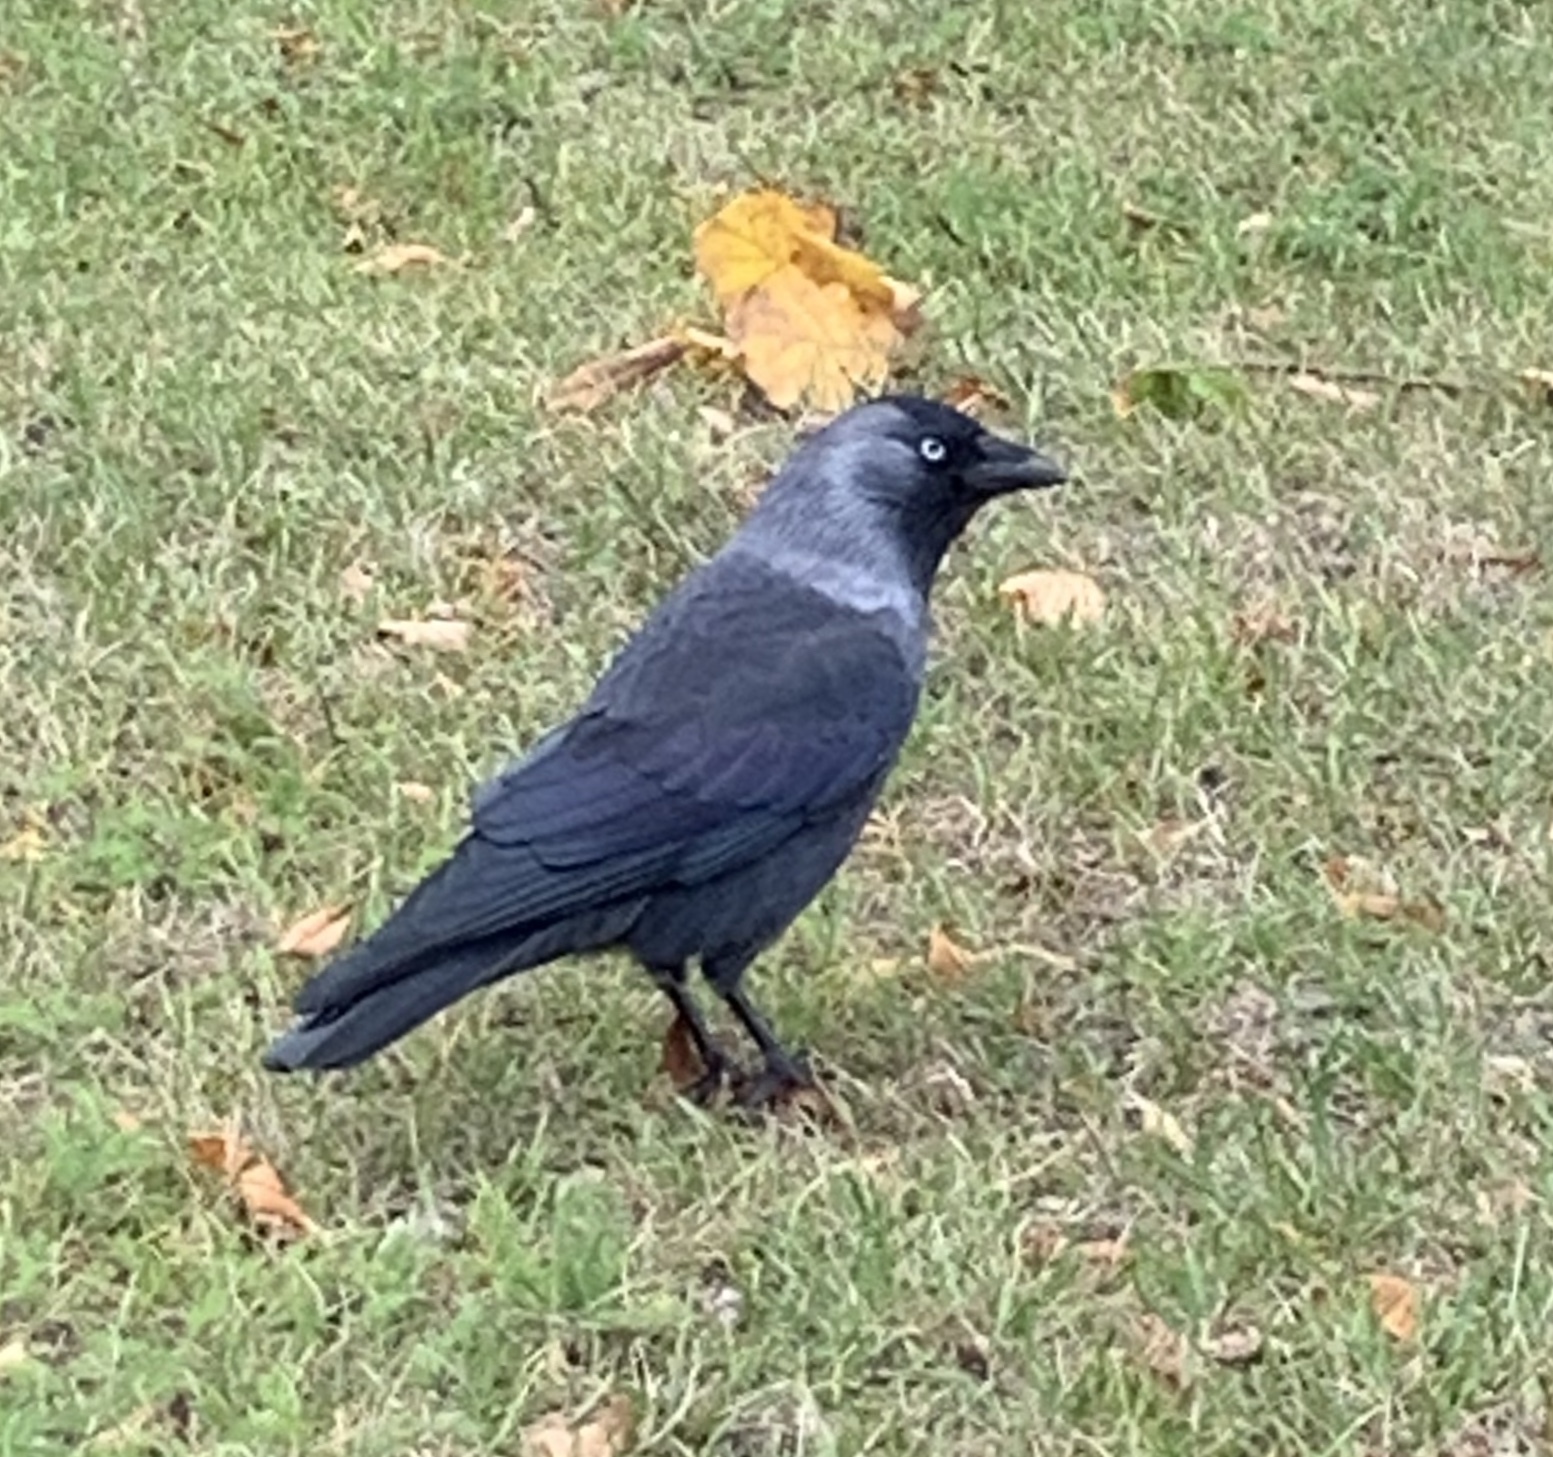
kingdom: Animalia
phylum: Chordata
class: Aves
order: Passeriformes
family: Corvidae
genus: Coloeus
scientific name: Coloeus monedula
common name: Western jackdaw
